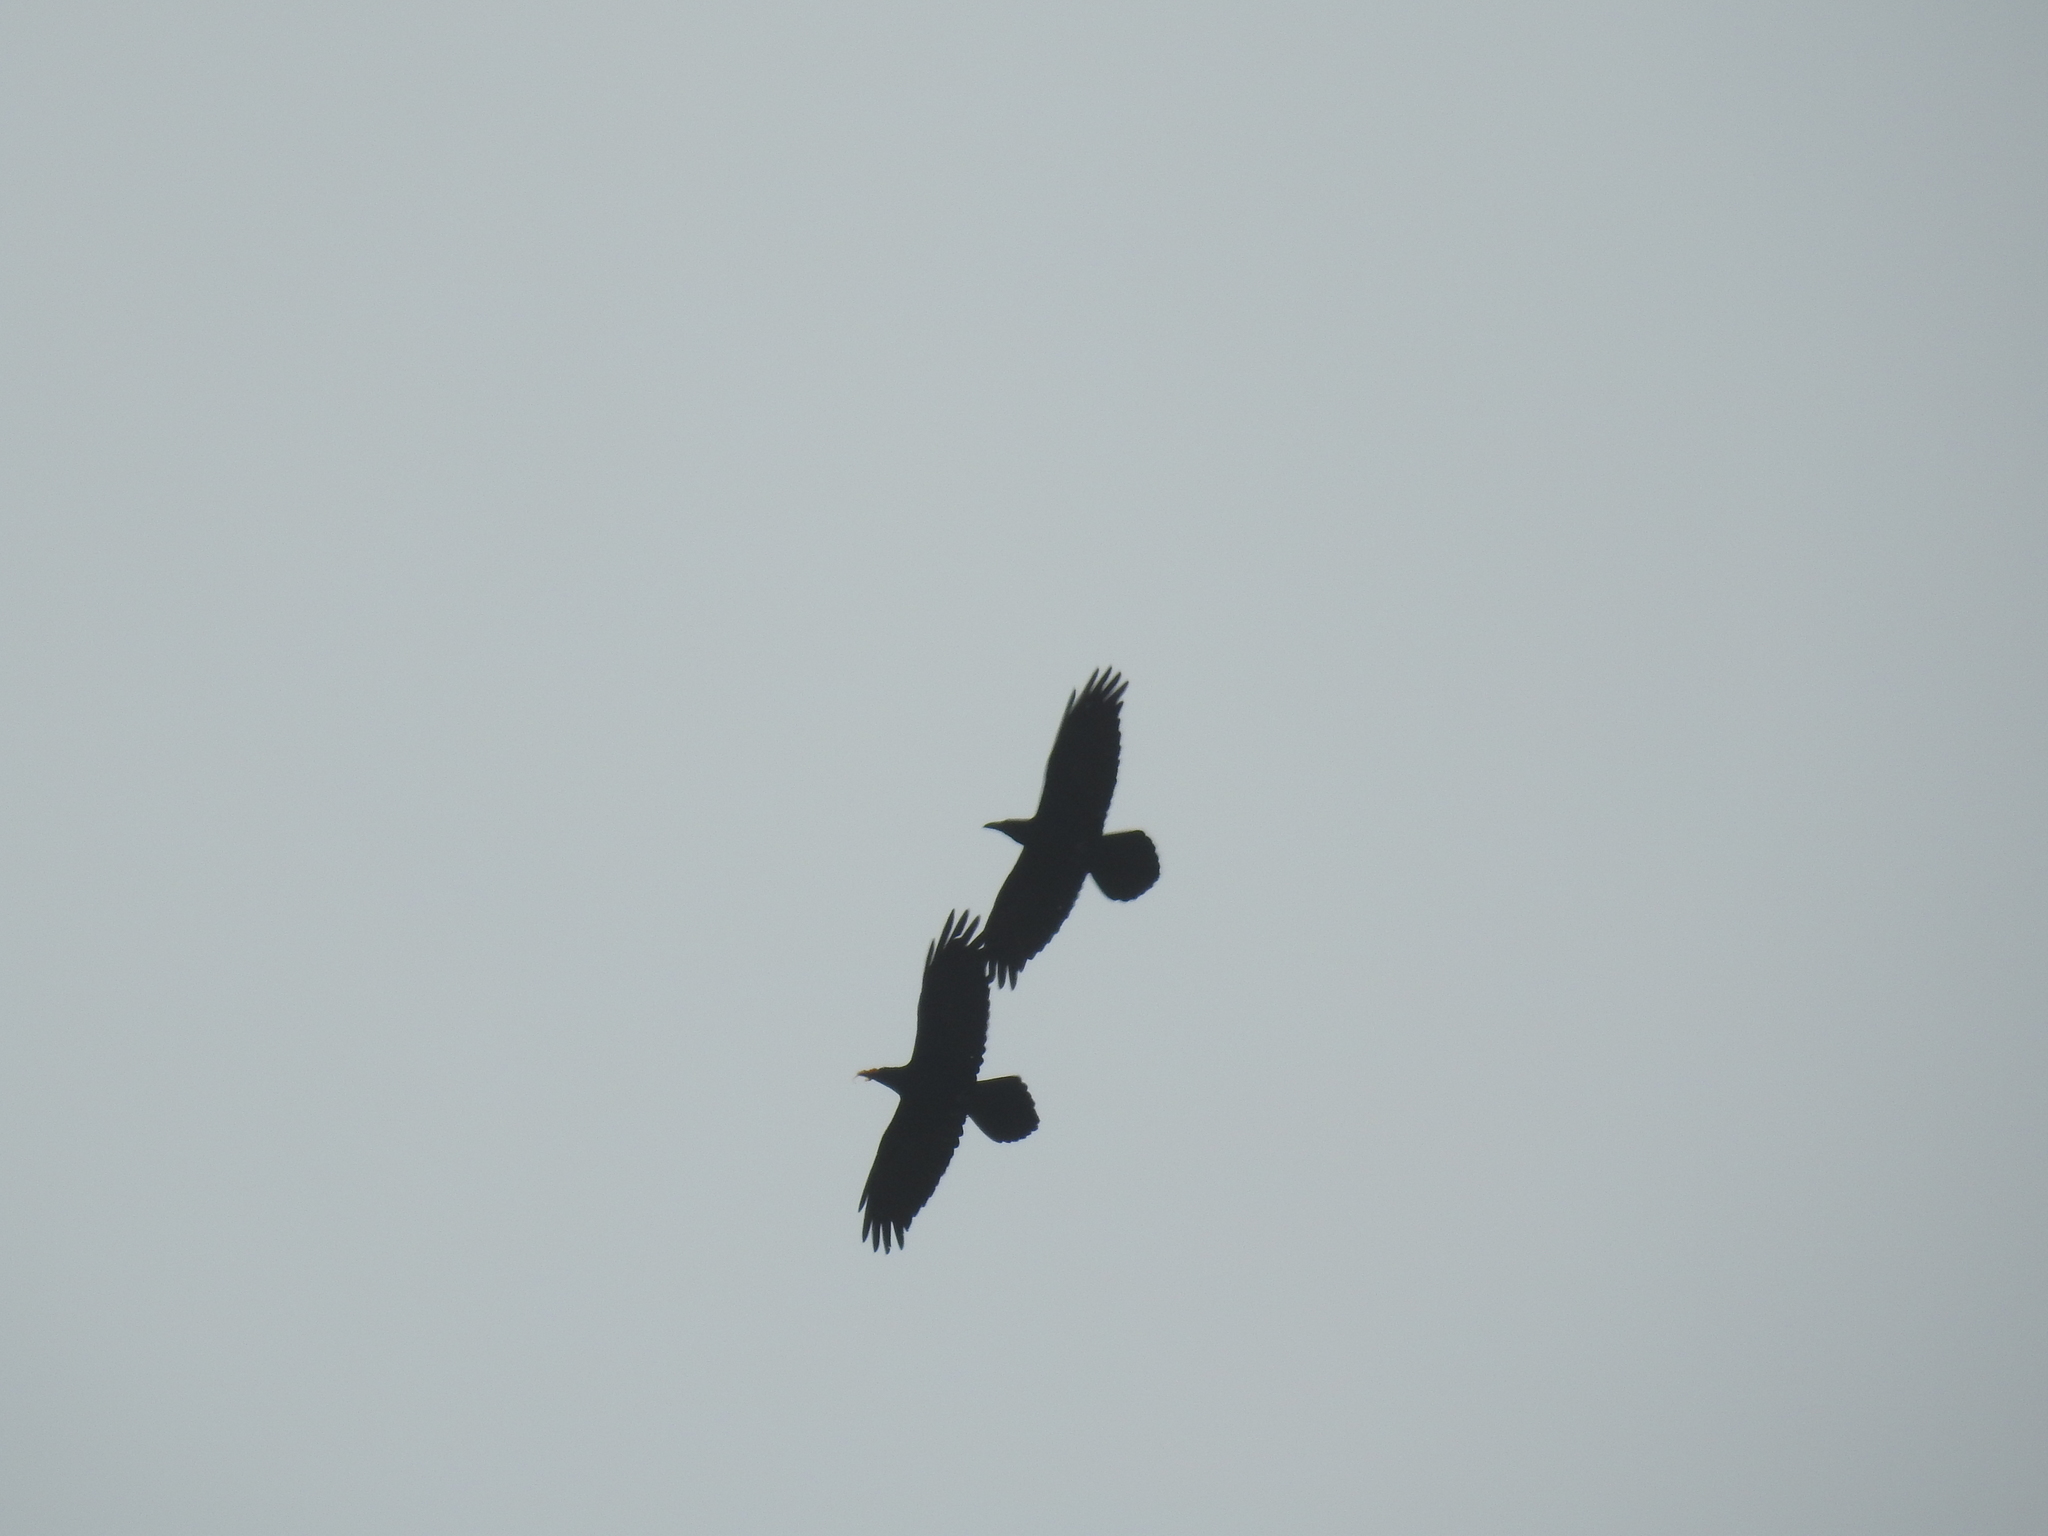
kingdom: Animalia
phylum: Chordata
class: Aves
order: Passeriformes
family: Corvidae
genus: Corvus
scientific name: Corvus corax
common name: Common raven
